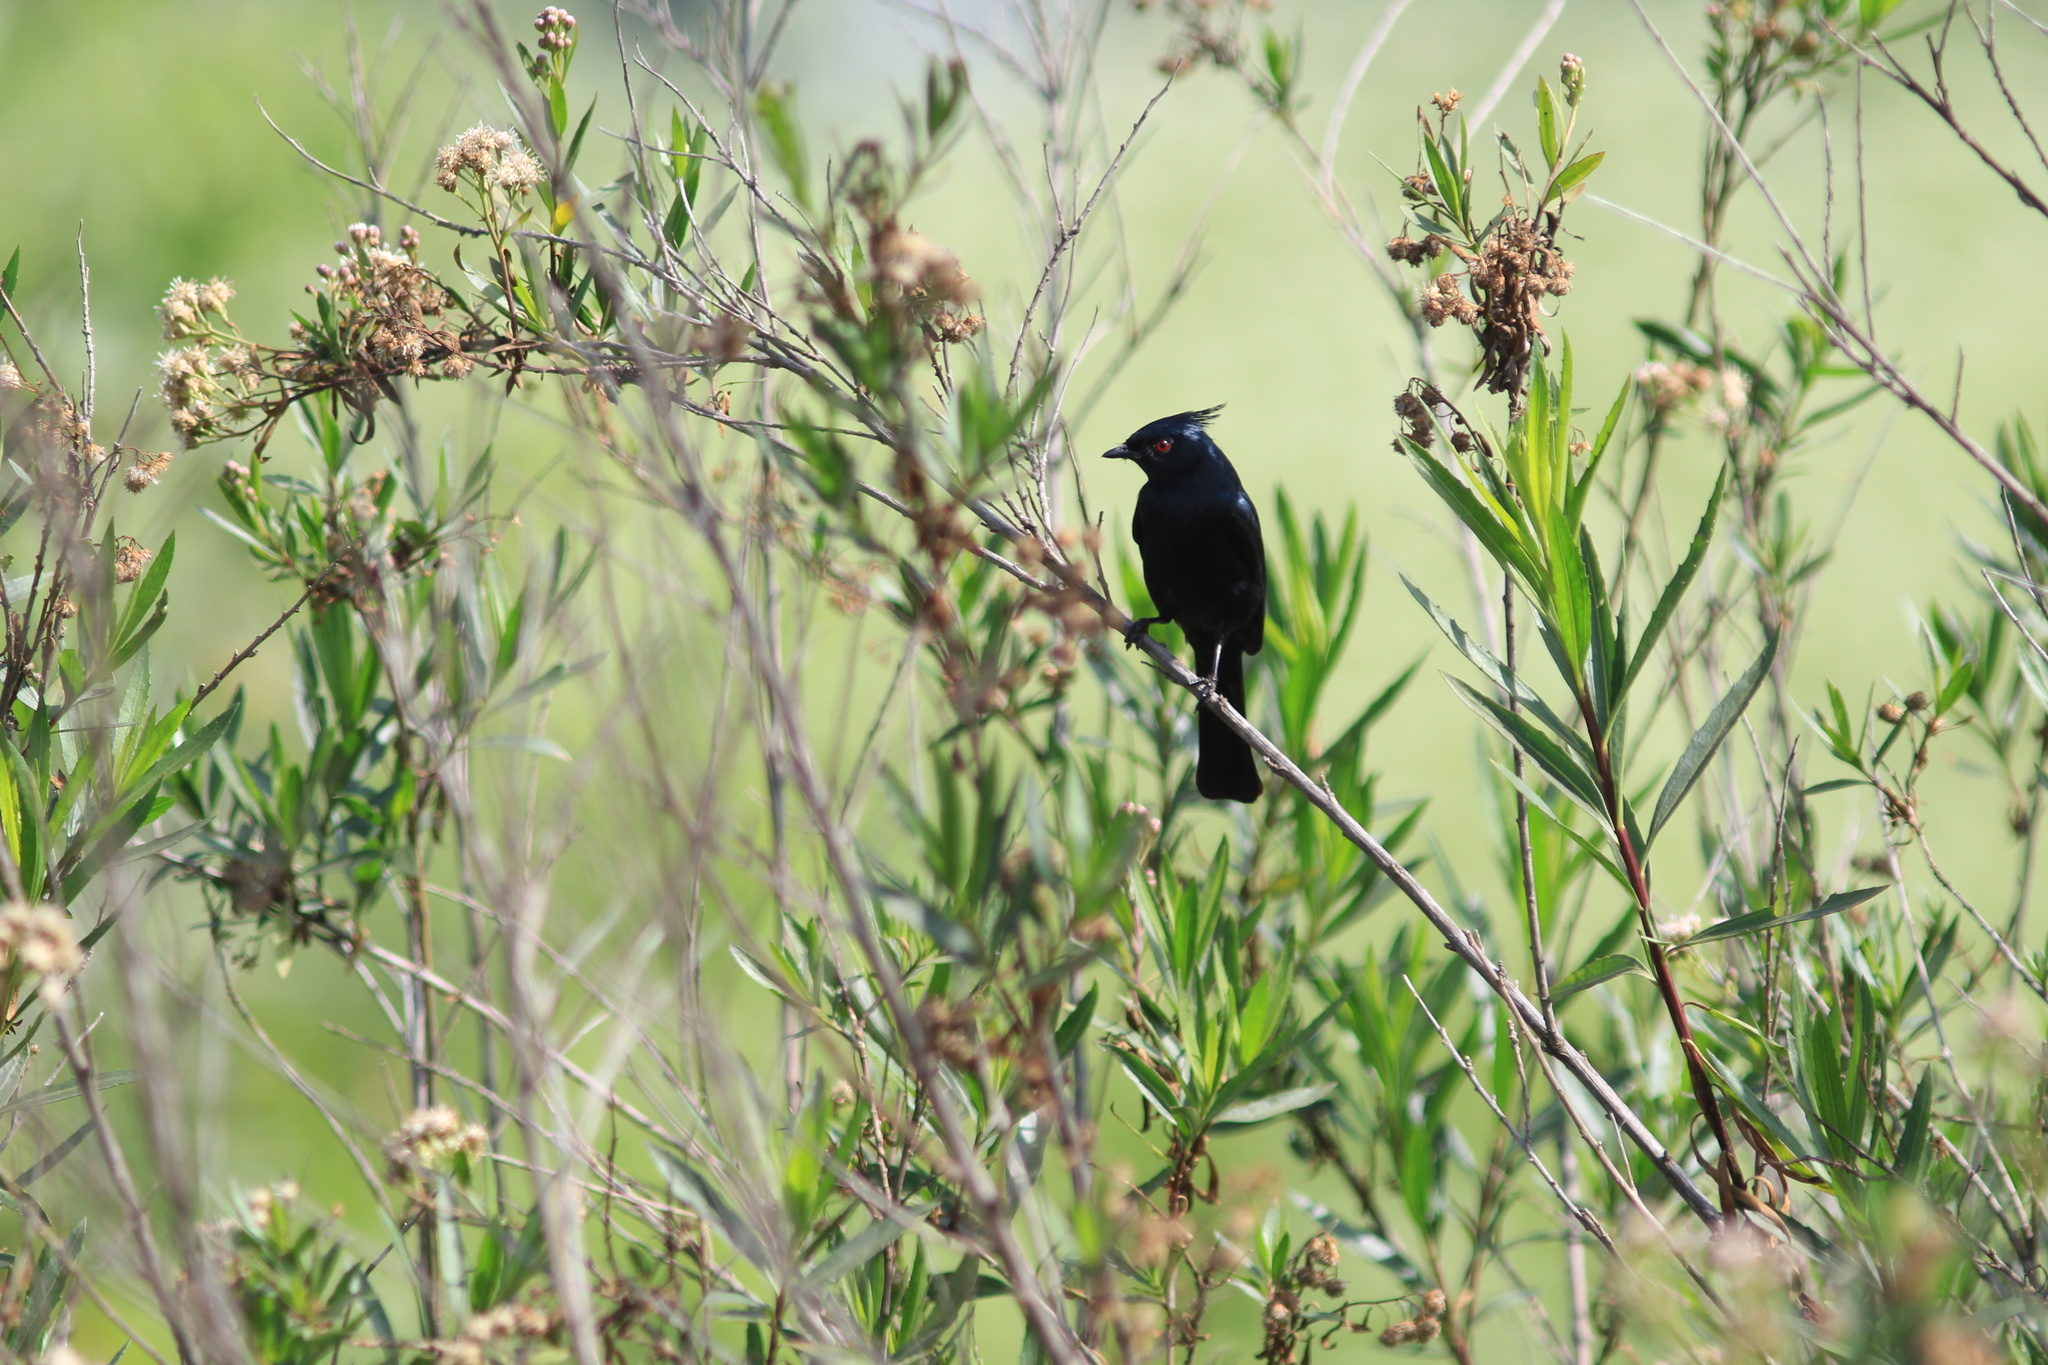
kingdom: Animalia
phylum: Chordata
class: Aves
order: Passeriformes
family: Ptilogonatidae
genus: Phainopepla
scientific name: Phainopepla nitens
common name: Phainopepla
